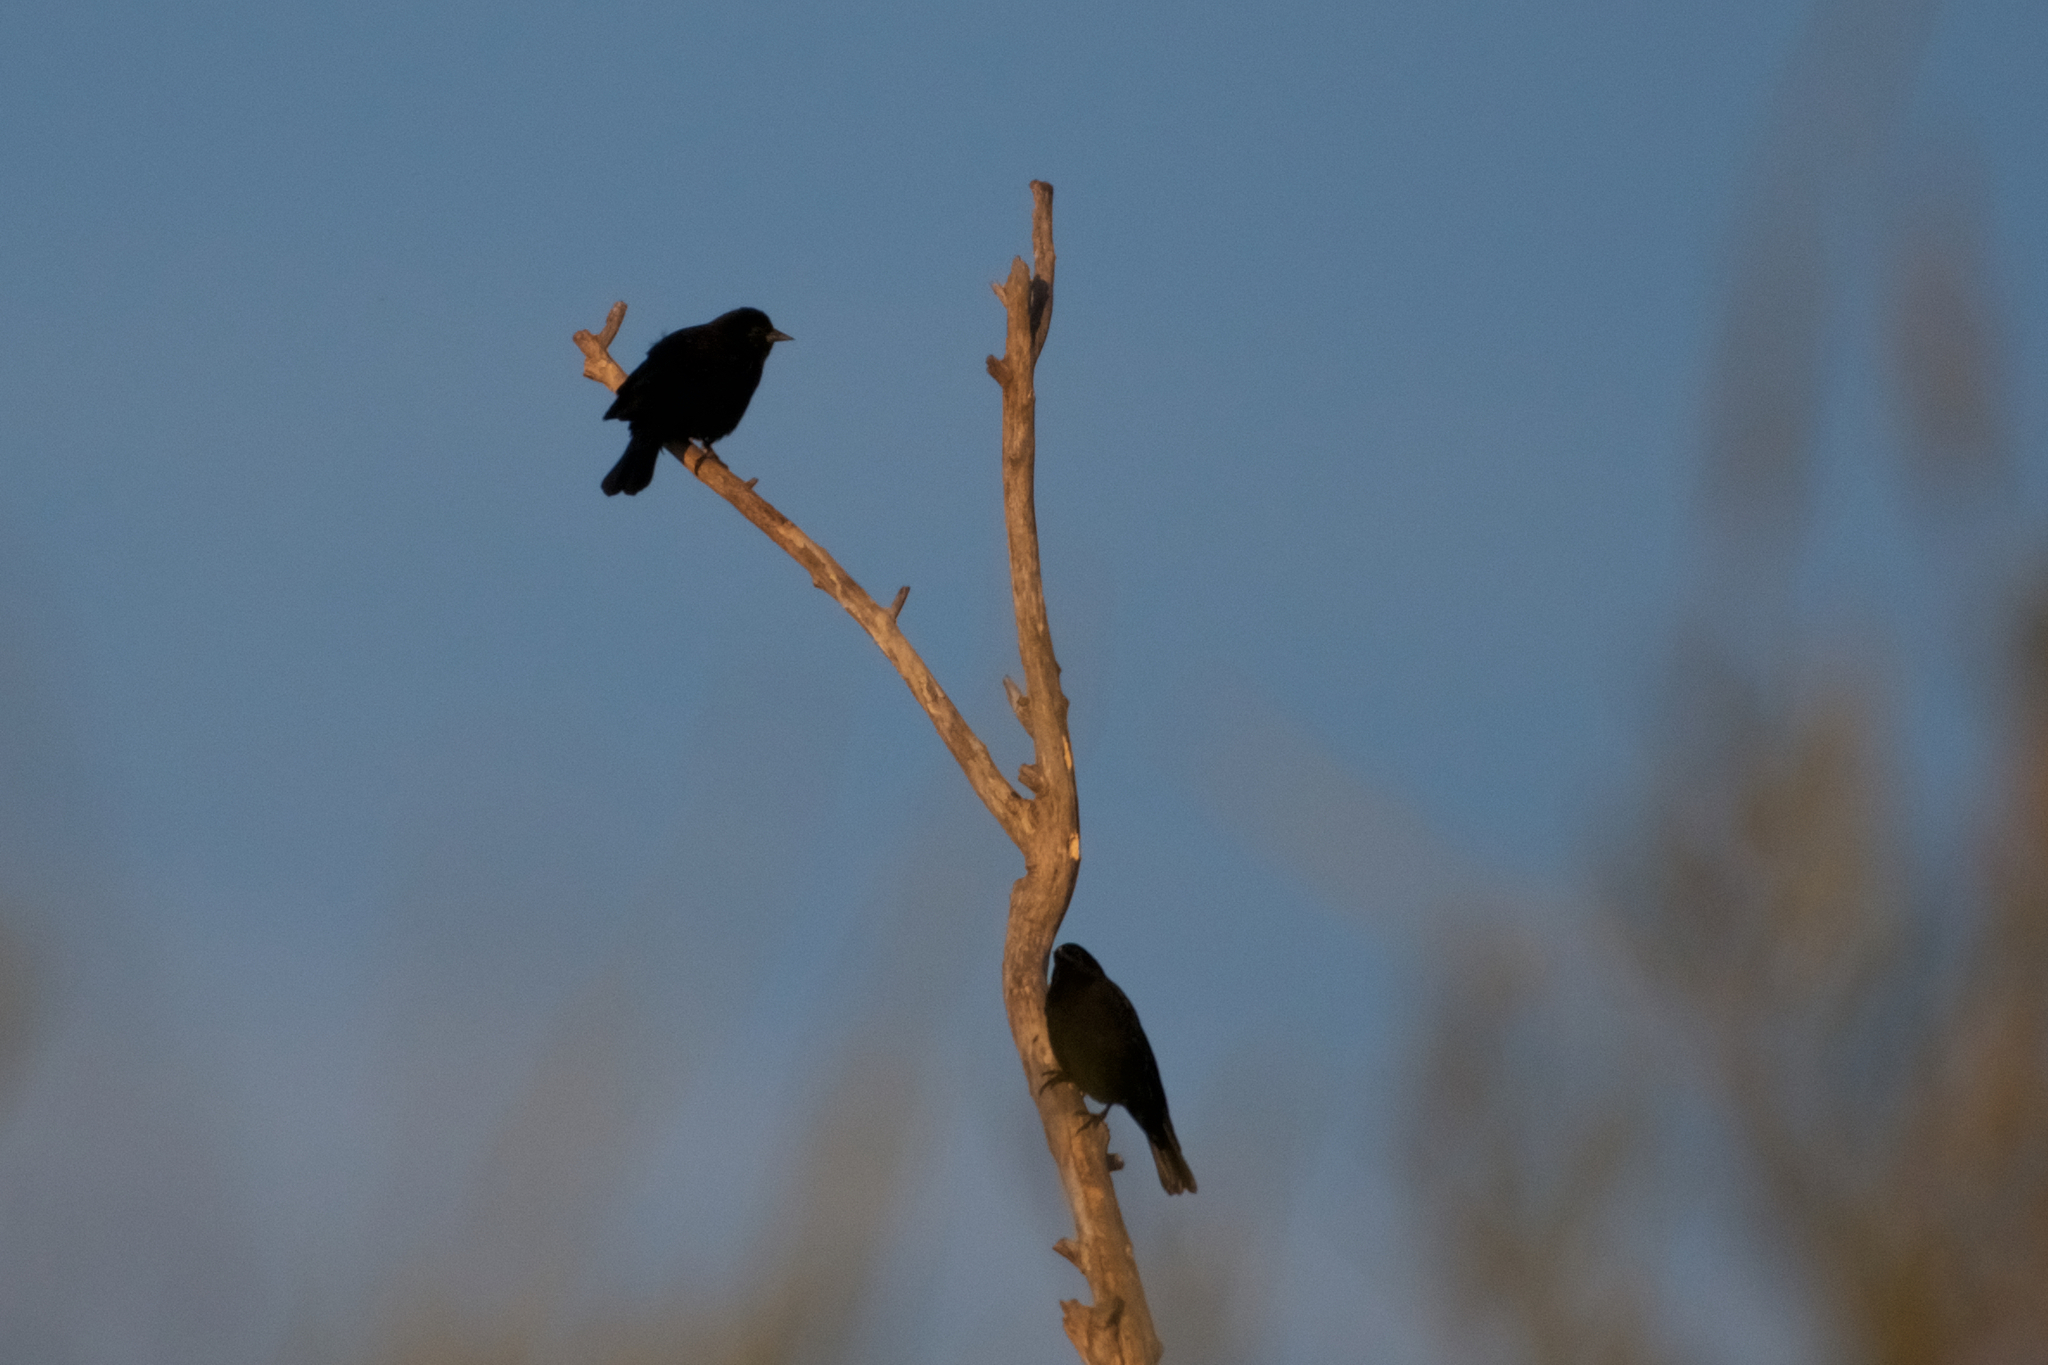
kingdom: Animalia
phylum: Chordata
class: Aves
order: Passeriformes
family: Icteridae
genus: Agelaius
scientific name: Agelaius phoeniceus
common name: Red-winged blackbird
